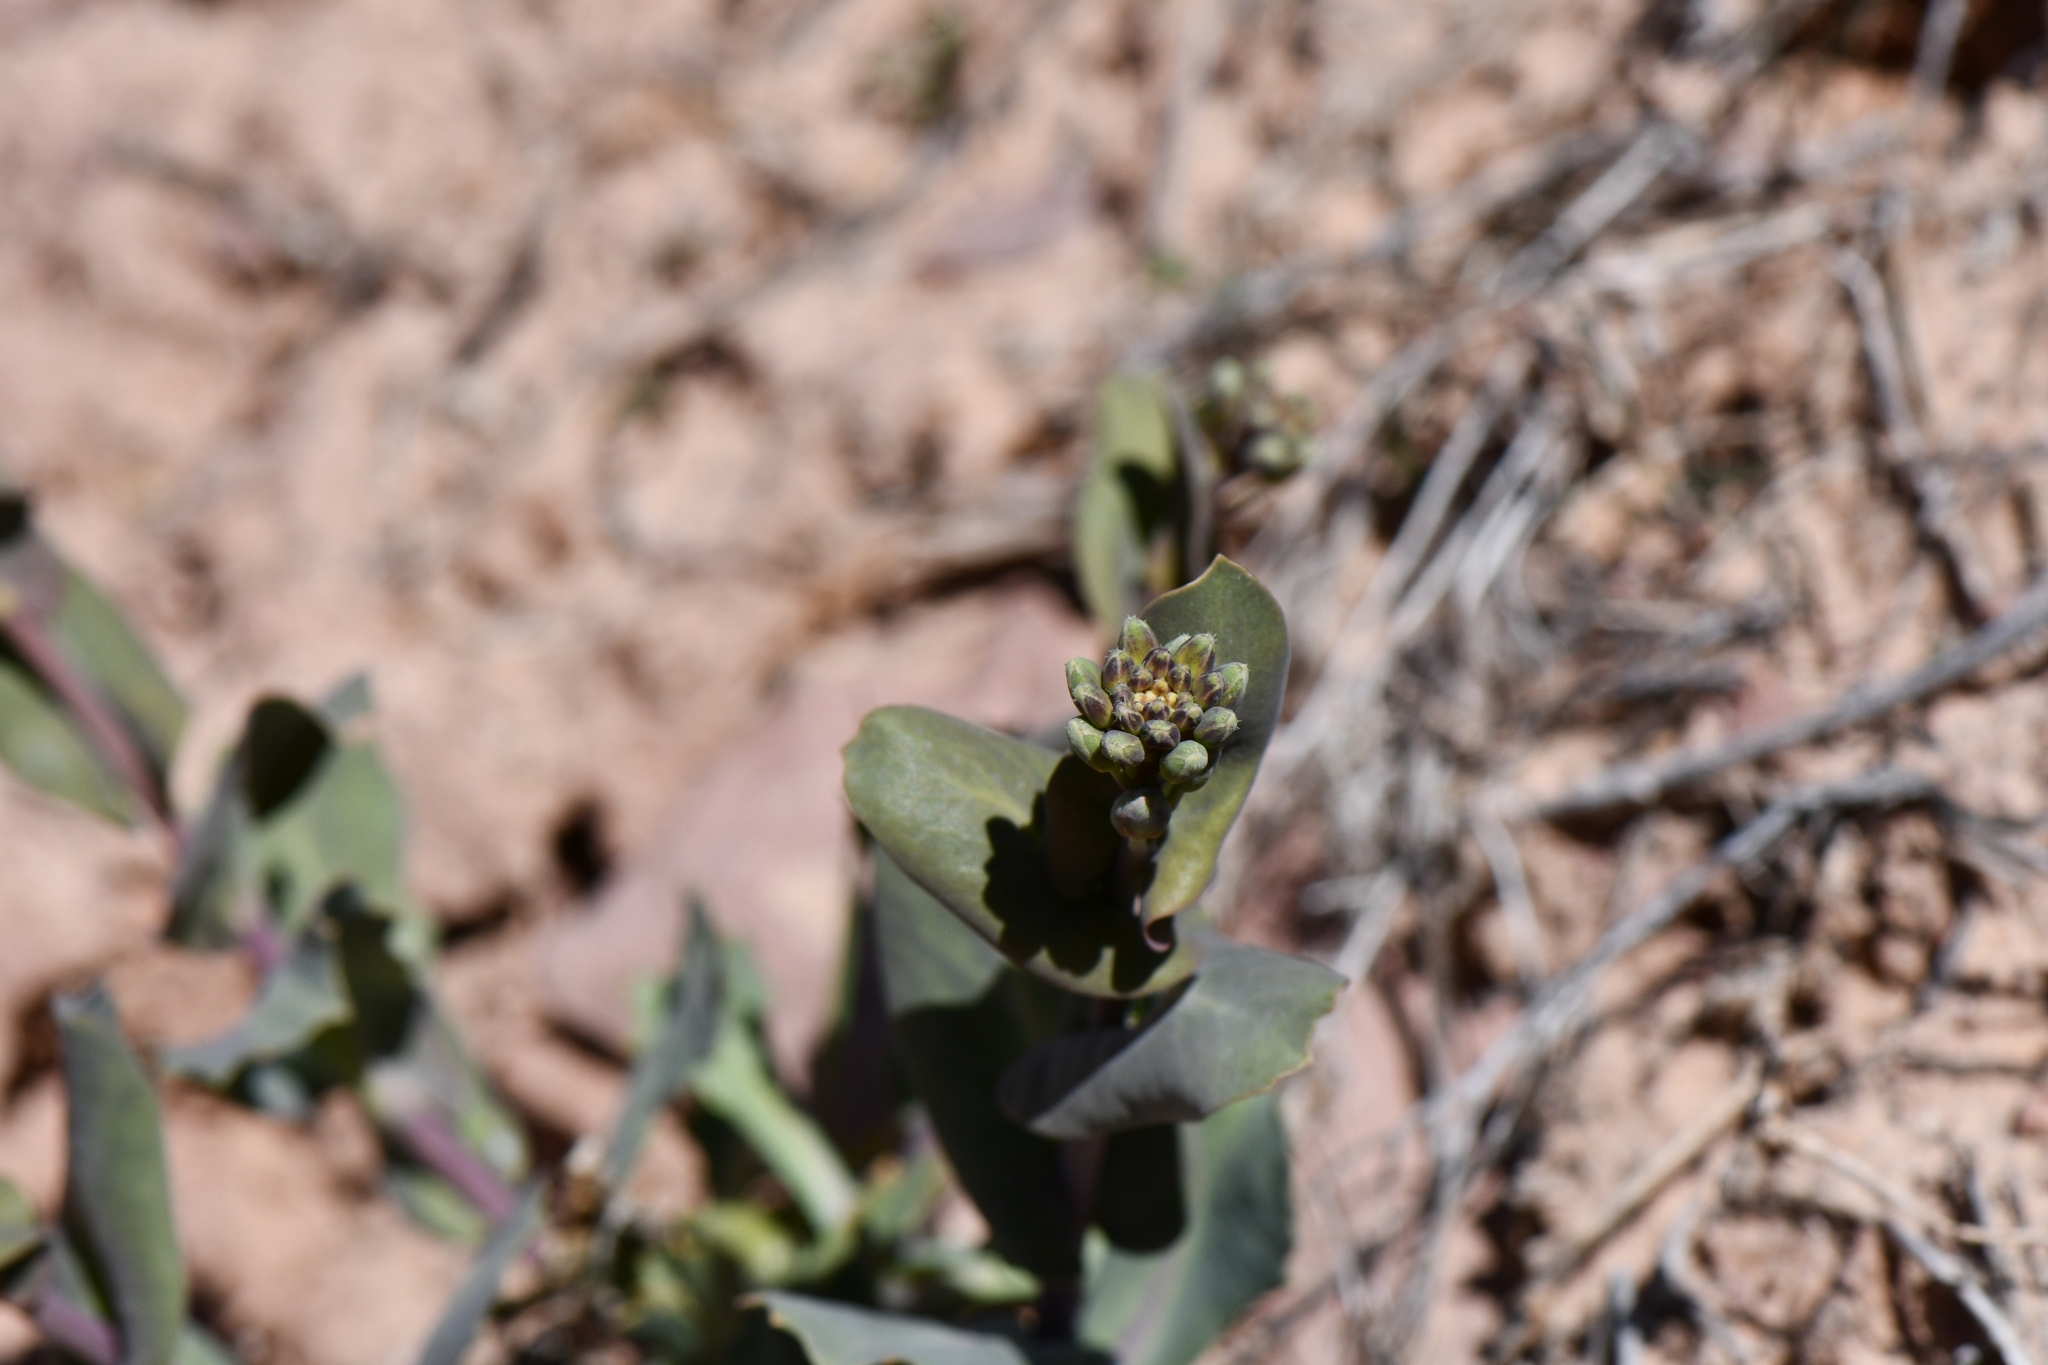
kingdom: Plantae
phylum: Tracheophyta
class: Magnoliopsida
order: Brassicales
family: Brassicaceae
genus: Streptanthus
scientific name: Streptanthus cordatus
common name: Heart-leaf jewel-flower
